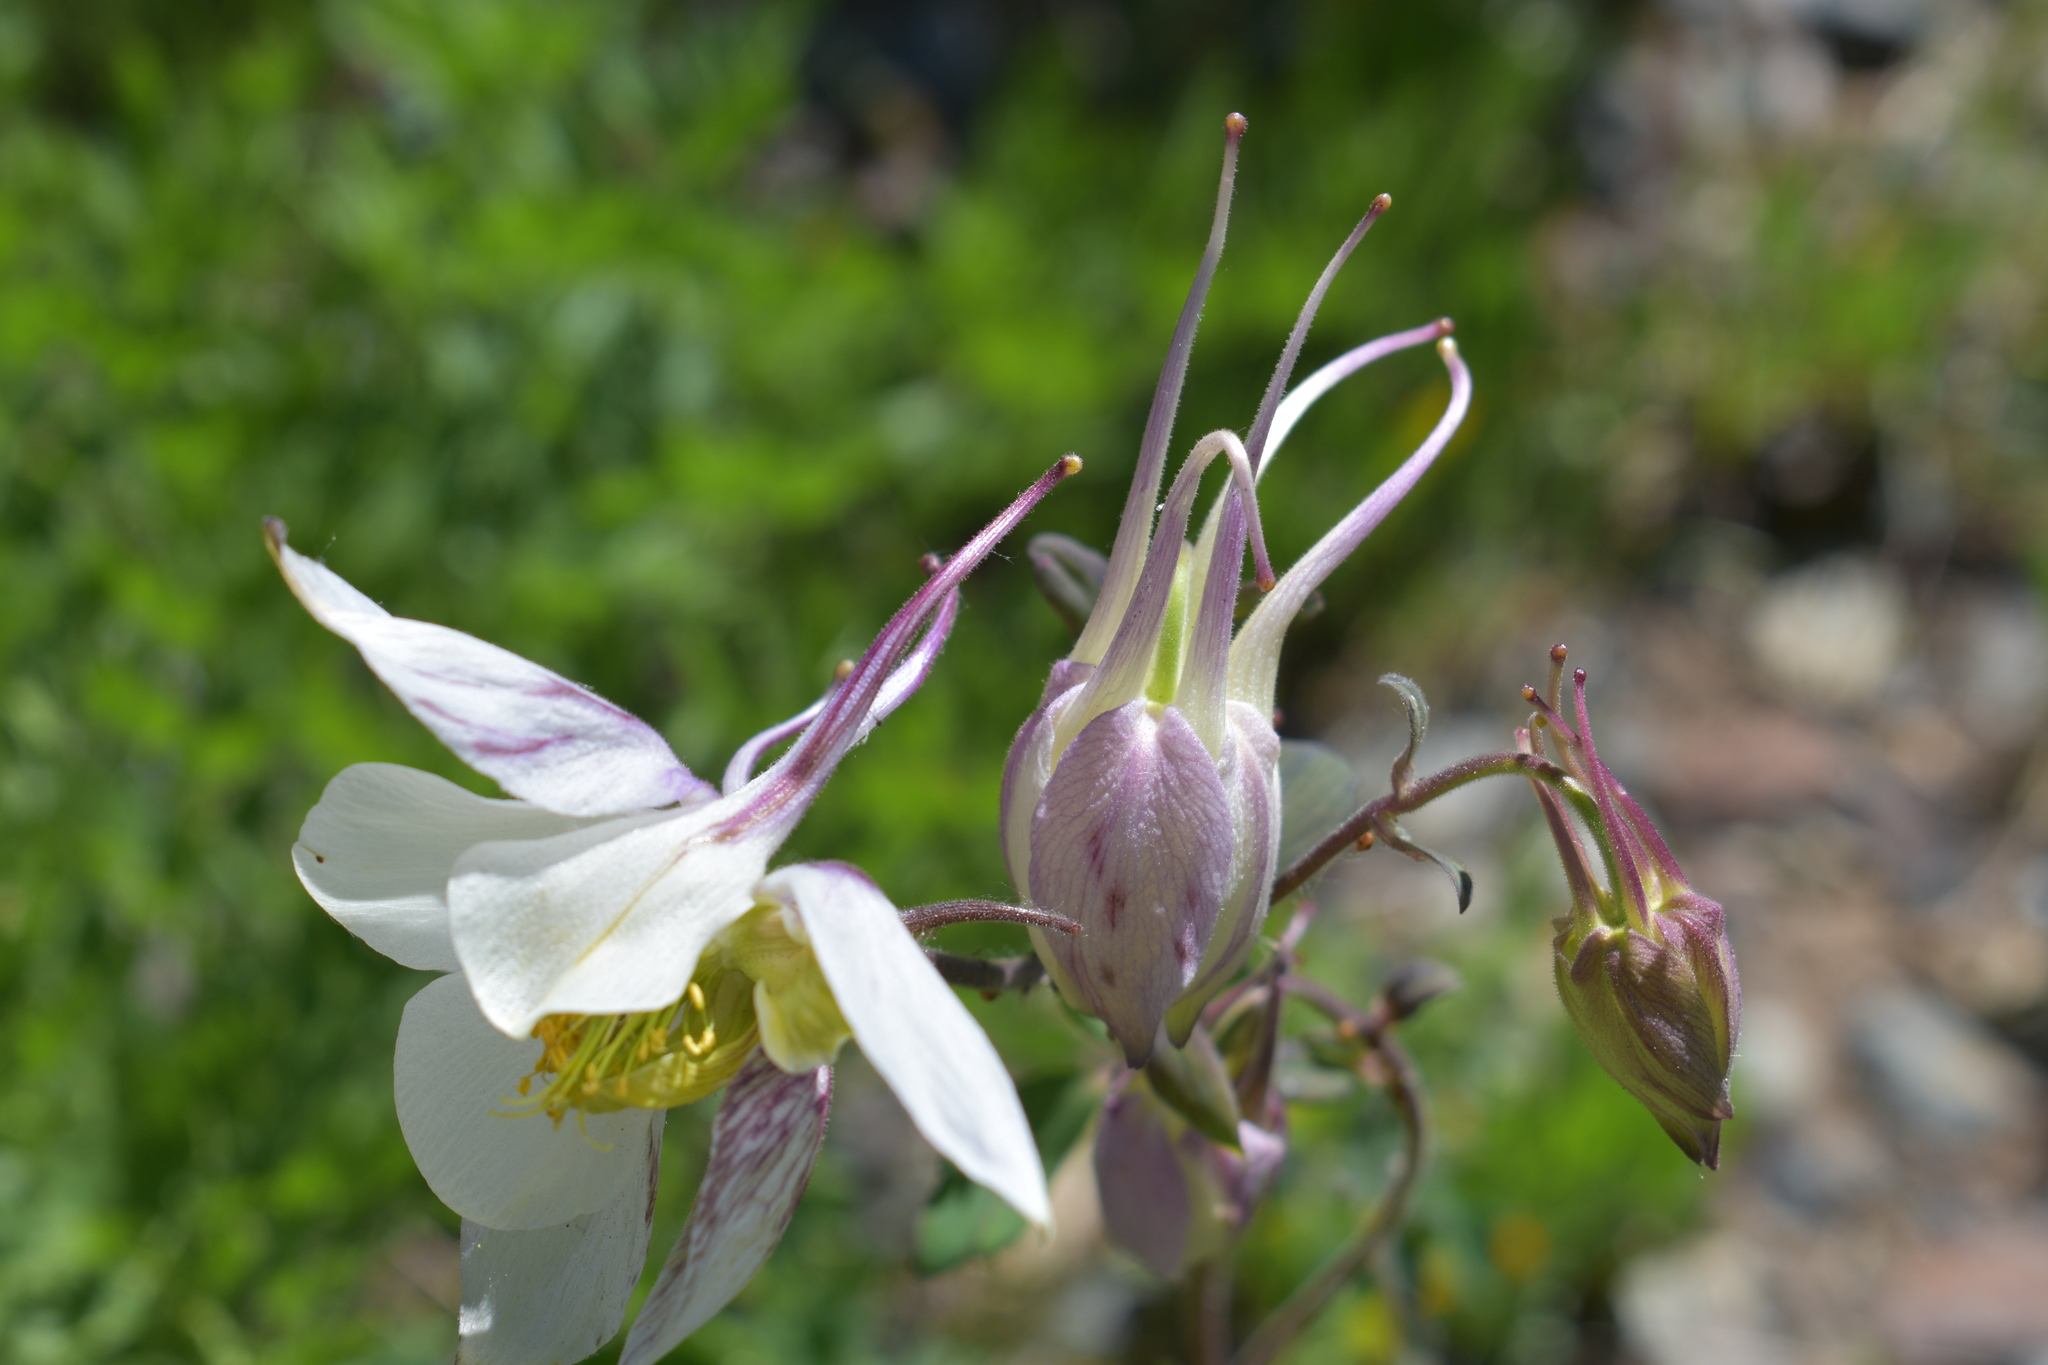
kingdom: Plantae
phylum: Tracheophyta
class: Magnoliopsida
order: Ranunculales
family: Ranunculaceae
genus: Aquilegia
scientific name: Aquilegia coerulea
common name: Rocky mountain columbine
